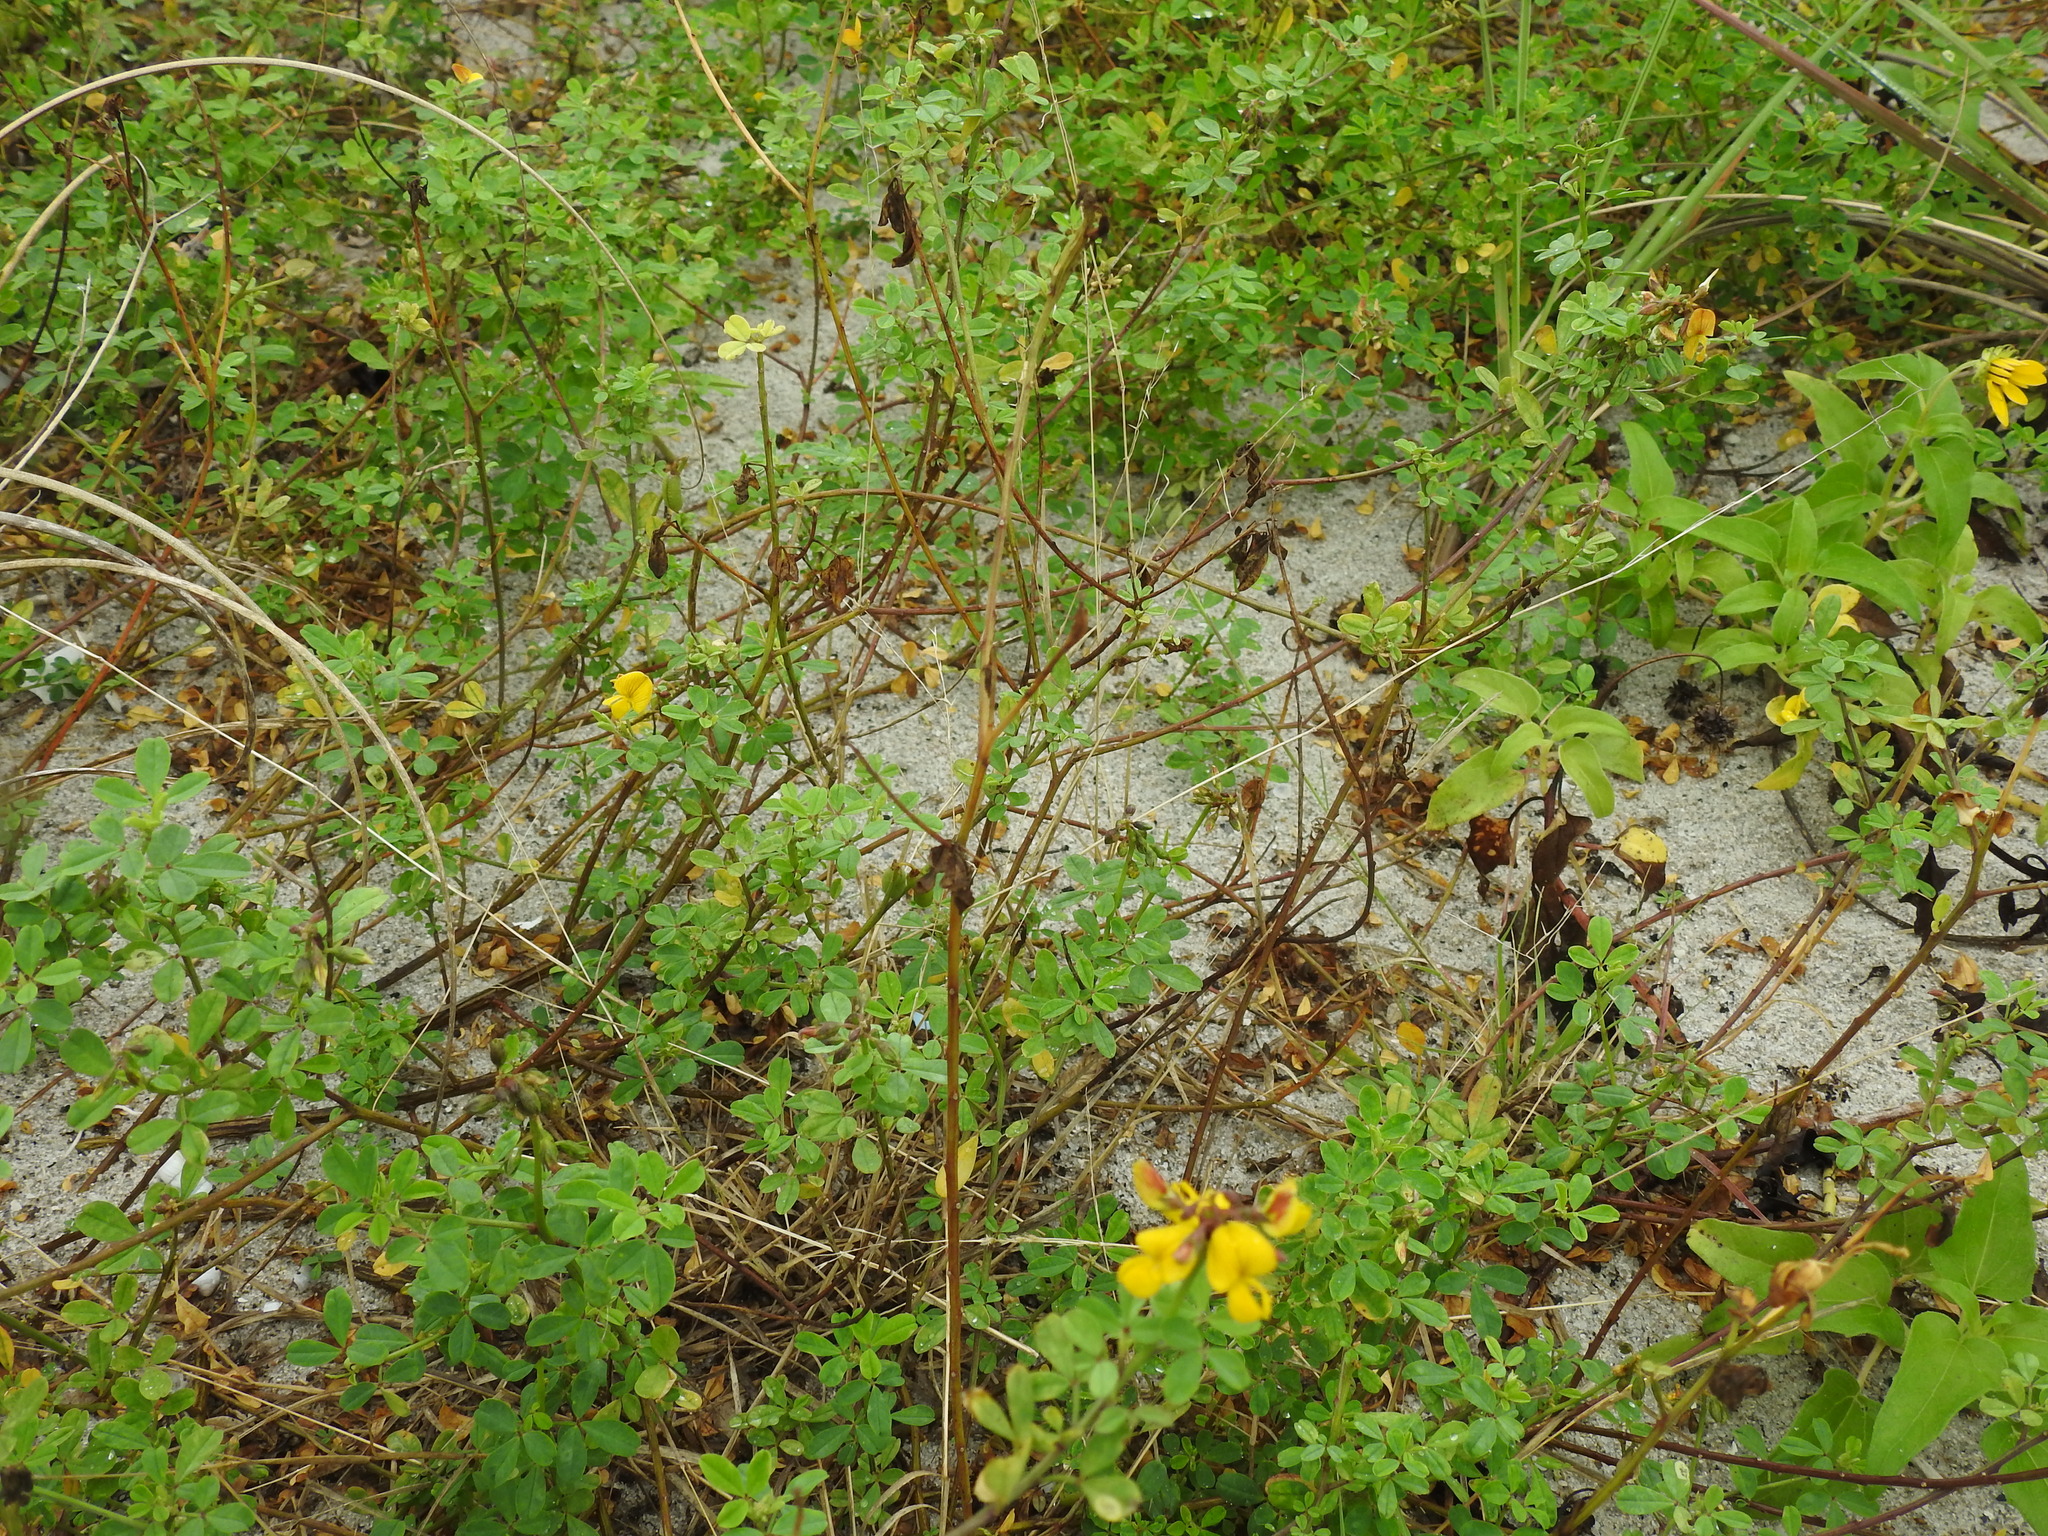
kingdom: Plantae
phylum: Tracheophyta
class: Magnoliopsida
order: Fabales
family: Fabaceae
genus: Crotalaria
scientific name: Crotalaria pumila
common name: Low rattlebox
